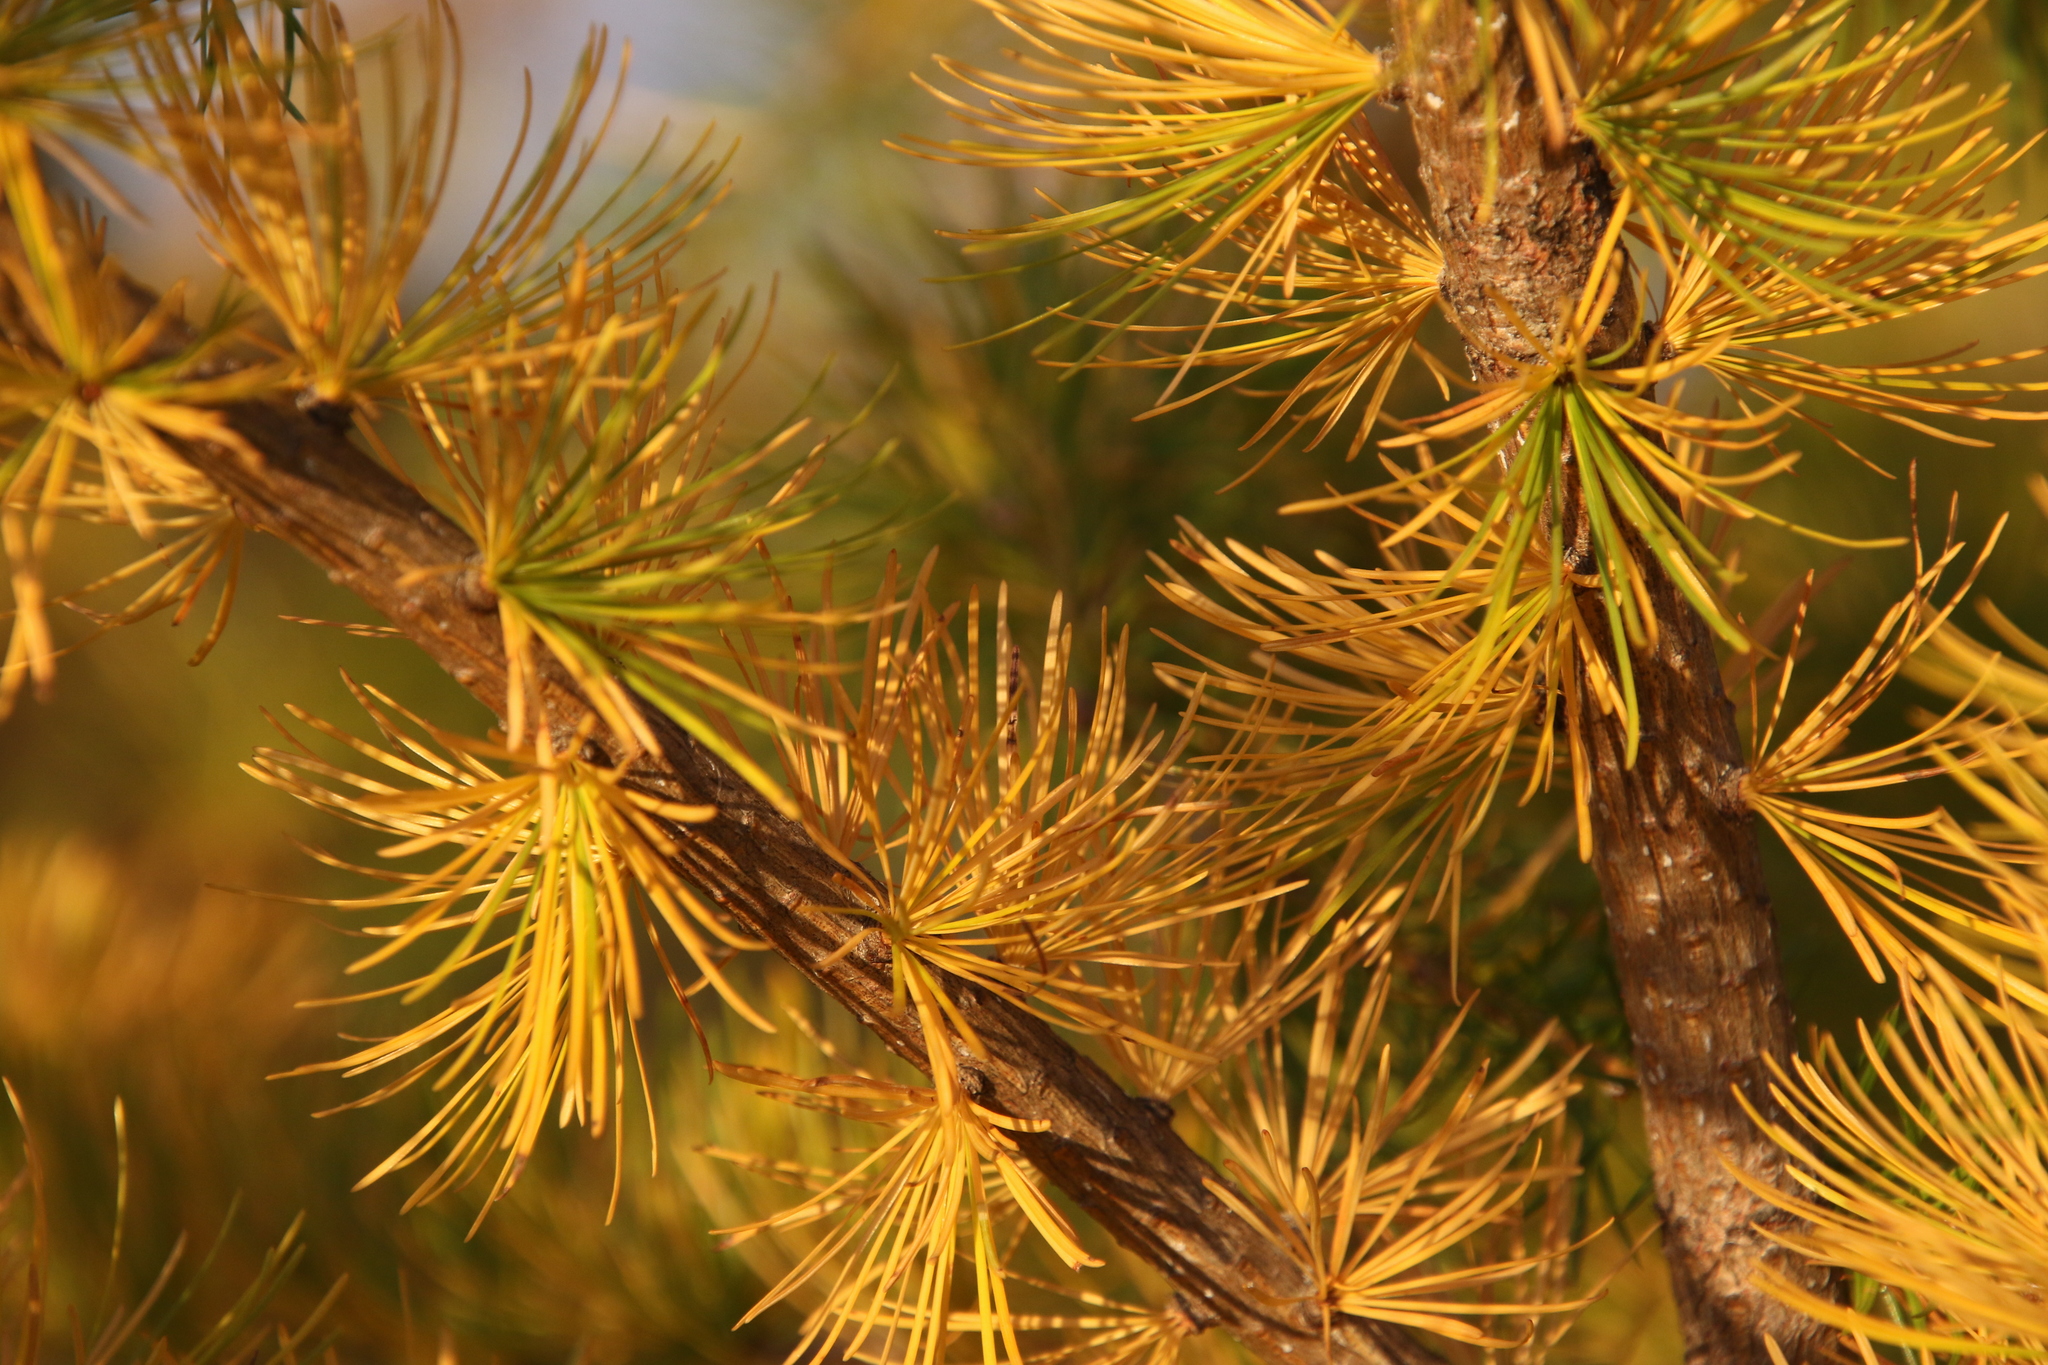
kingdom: Plantae
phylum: Tracheophyta
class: Pinopsida
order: Pinales
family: Pinaceae
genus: Larix
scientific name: Larix laricina
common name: American larch
